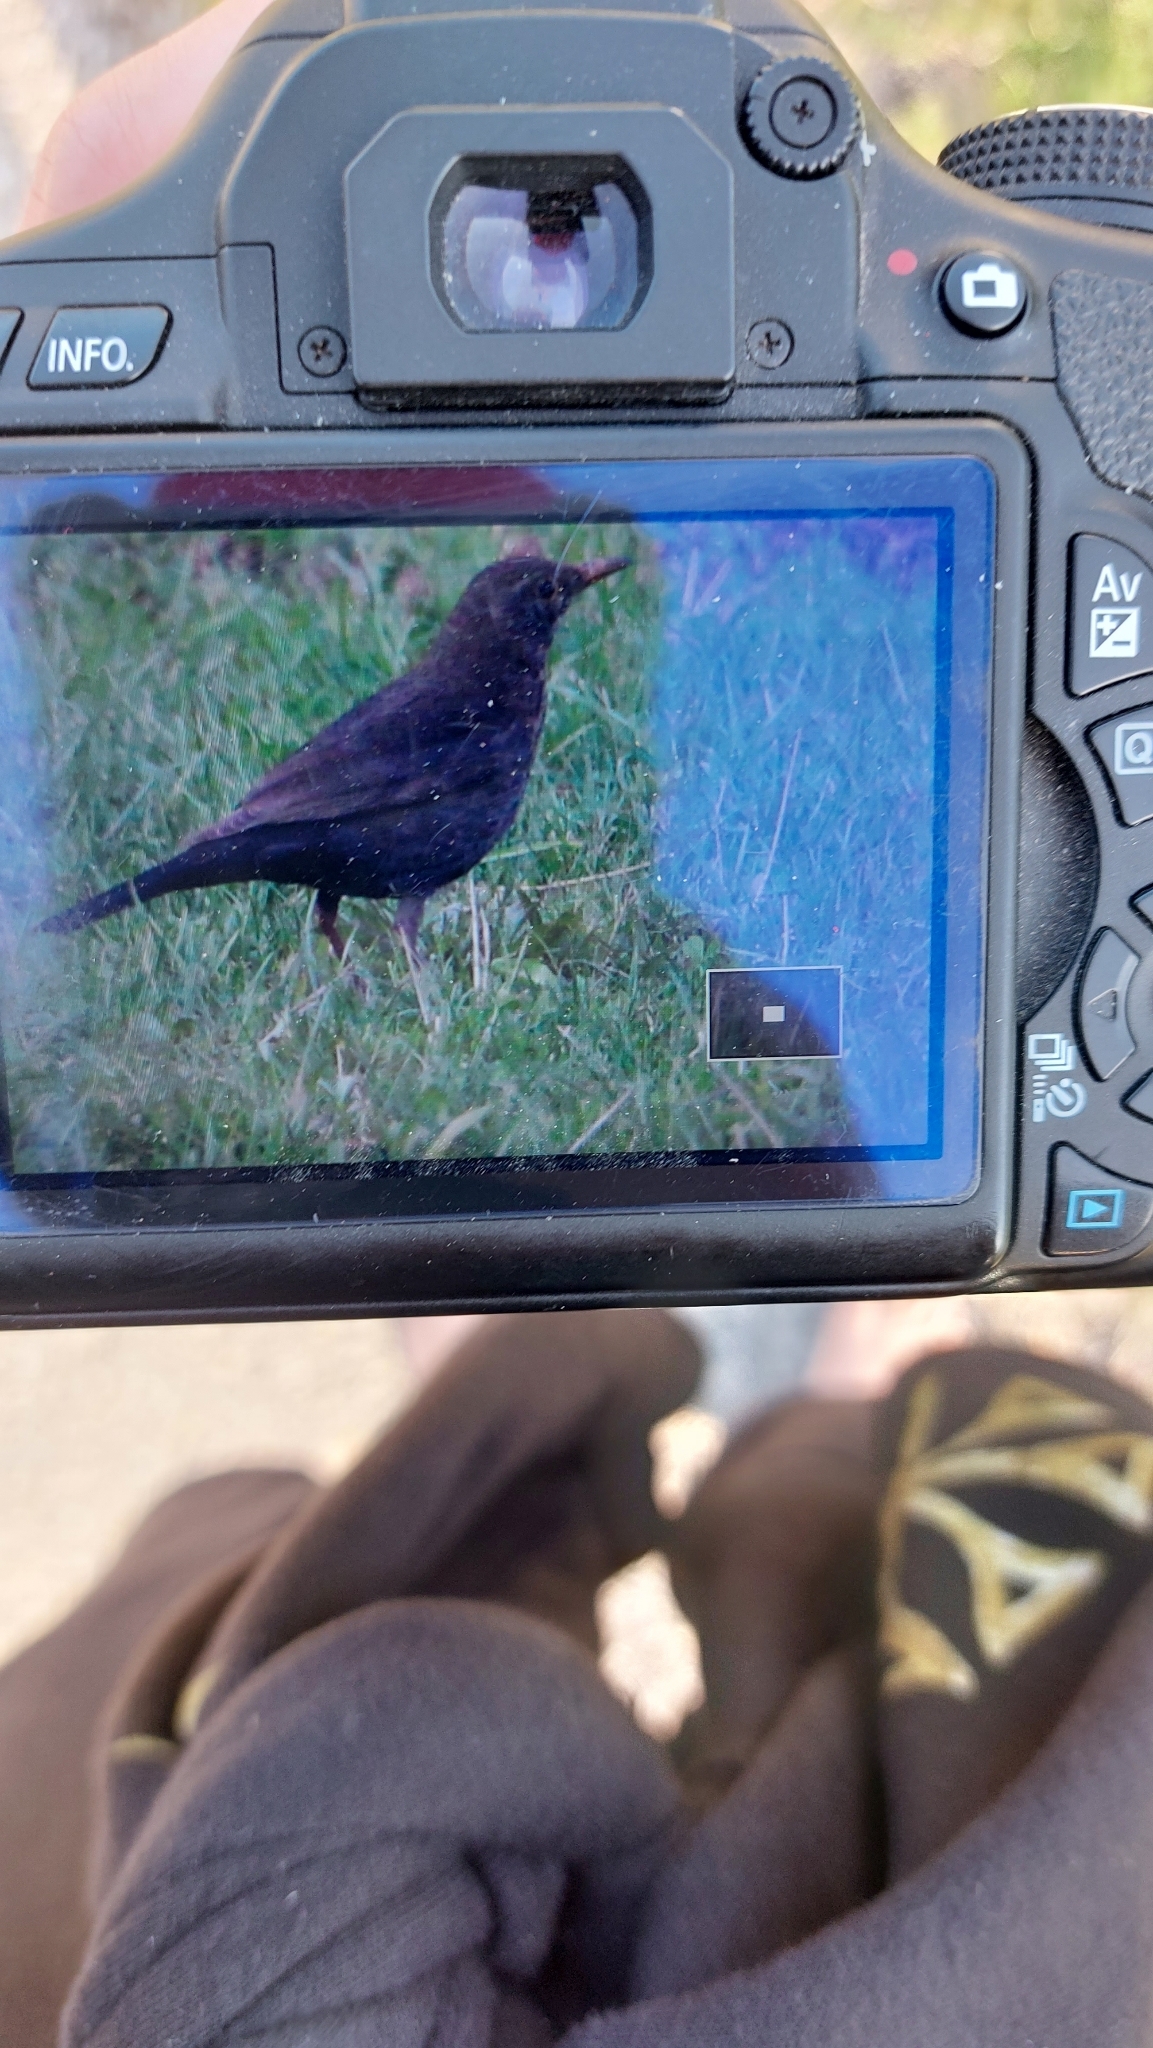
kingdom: Animalia
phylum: Chordata
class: Aves
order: Passeriformes
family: Turdidae
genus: Turdus
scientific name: Turdus merula
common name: Common blackbird
